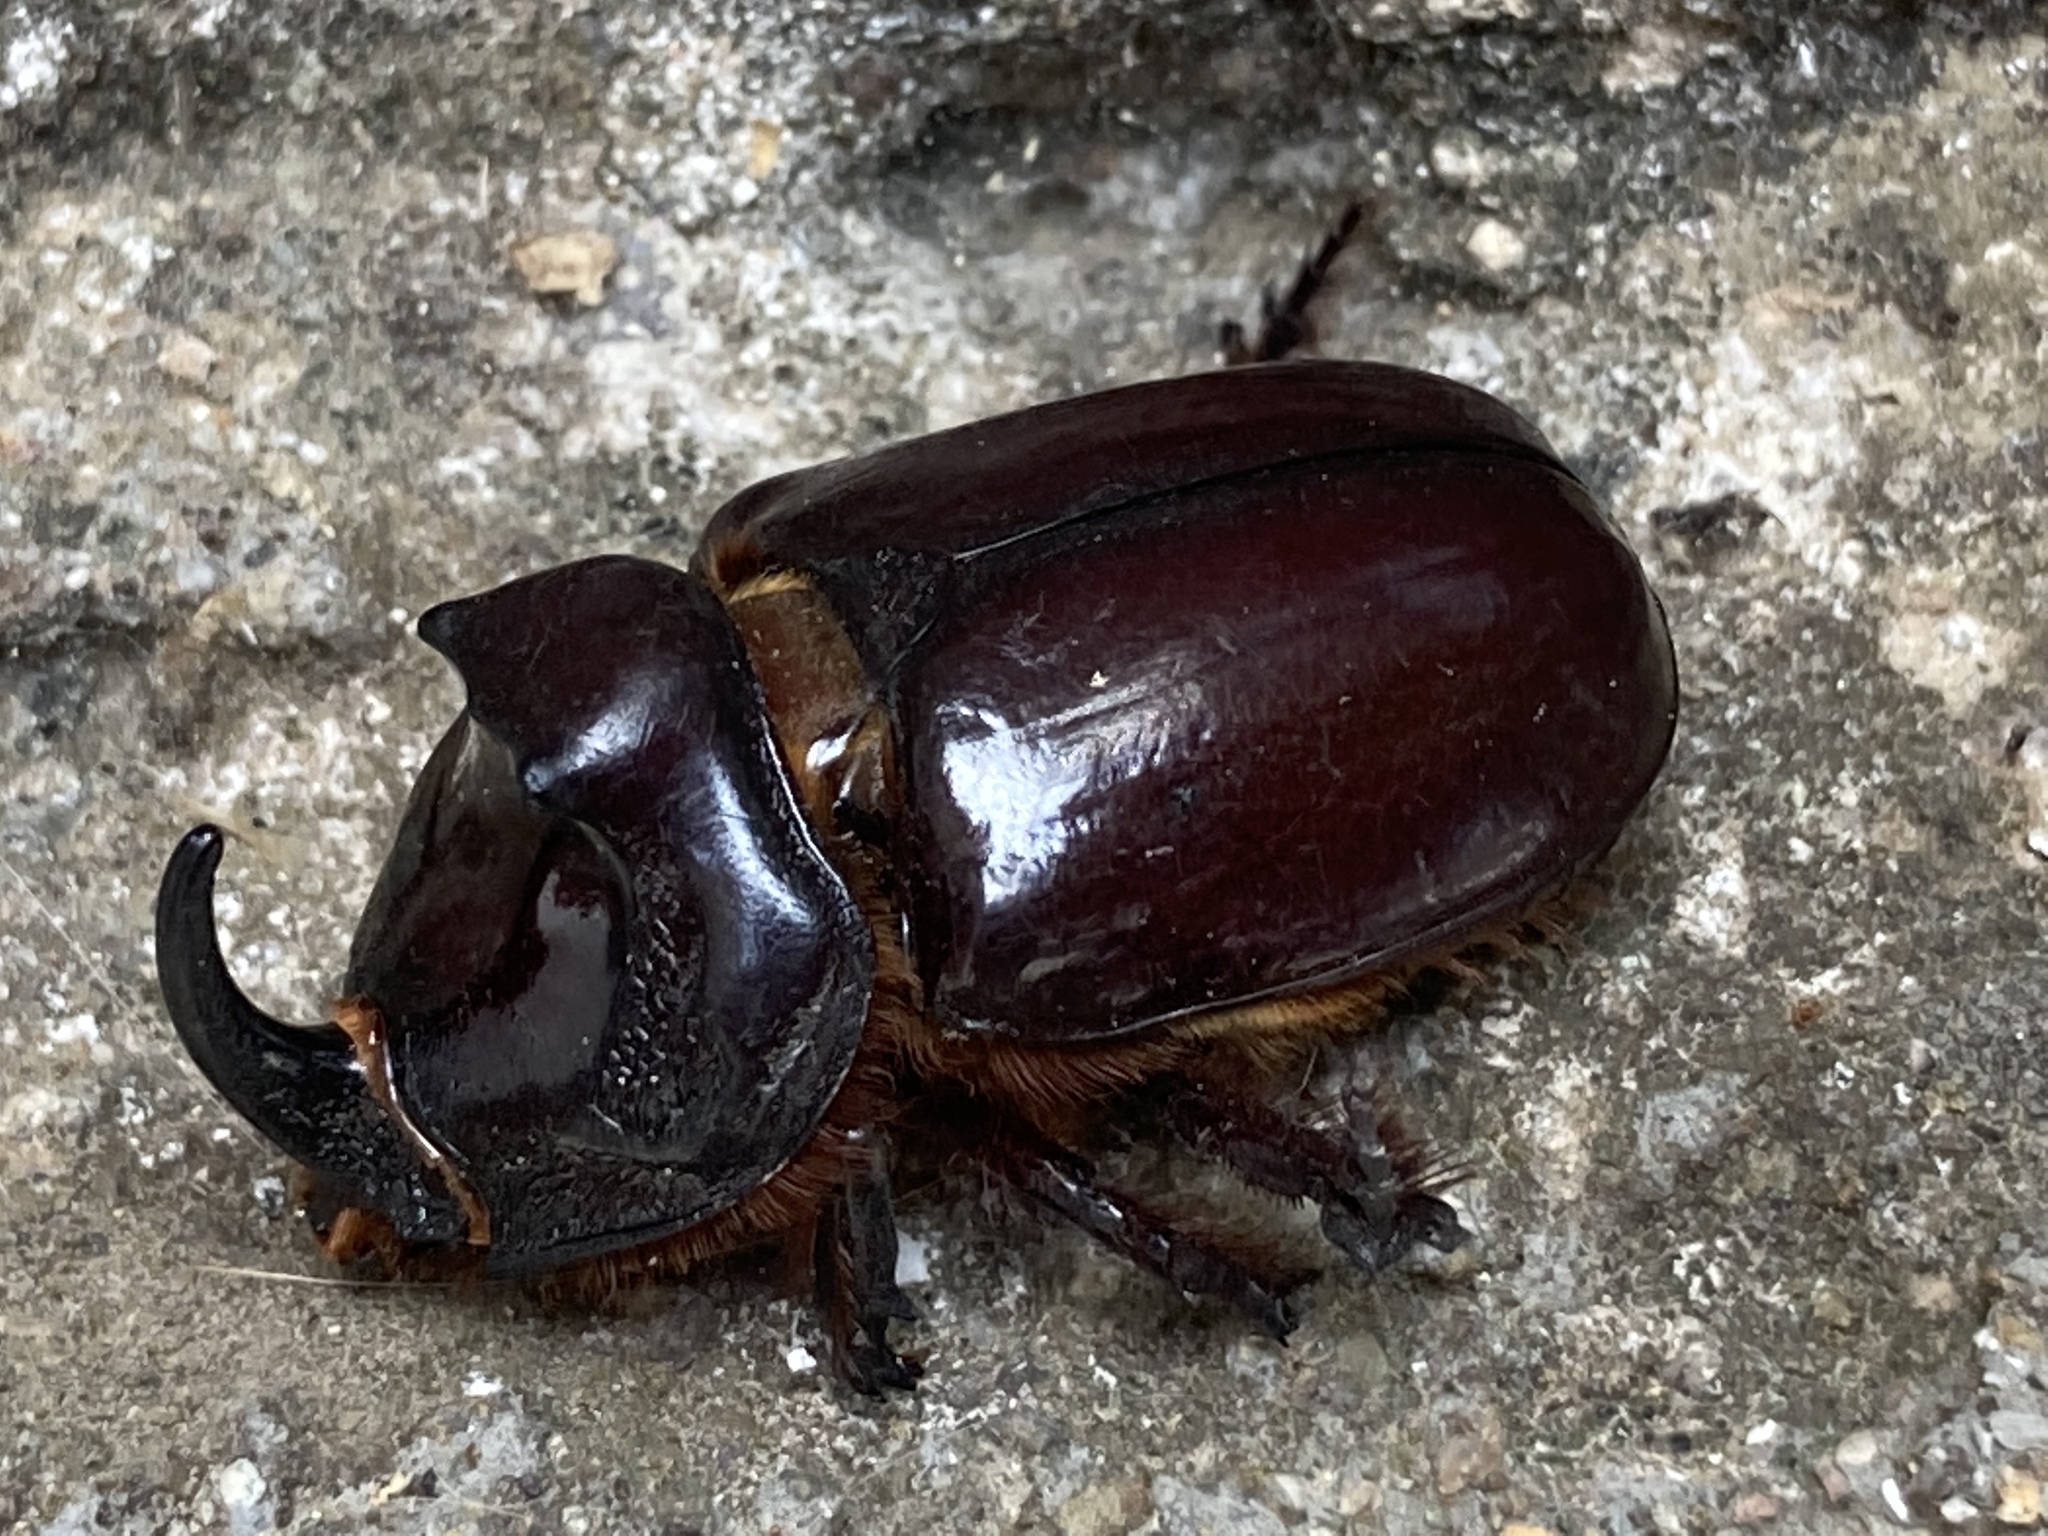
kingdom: Animalia
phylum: Arthropoda
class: Insecta
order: Coleoptera
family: Scarabaeidae
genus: Oryctes
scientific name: Oryctes nasicornis
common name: European rhinoceros beetle
